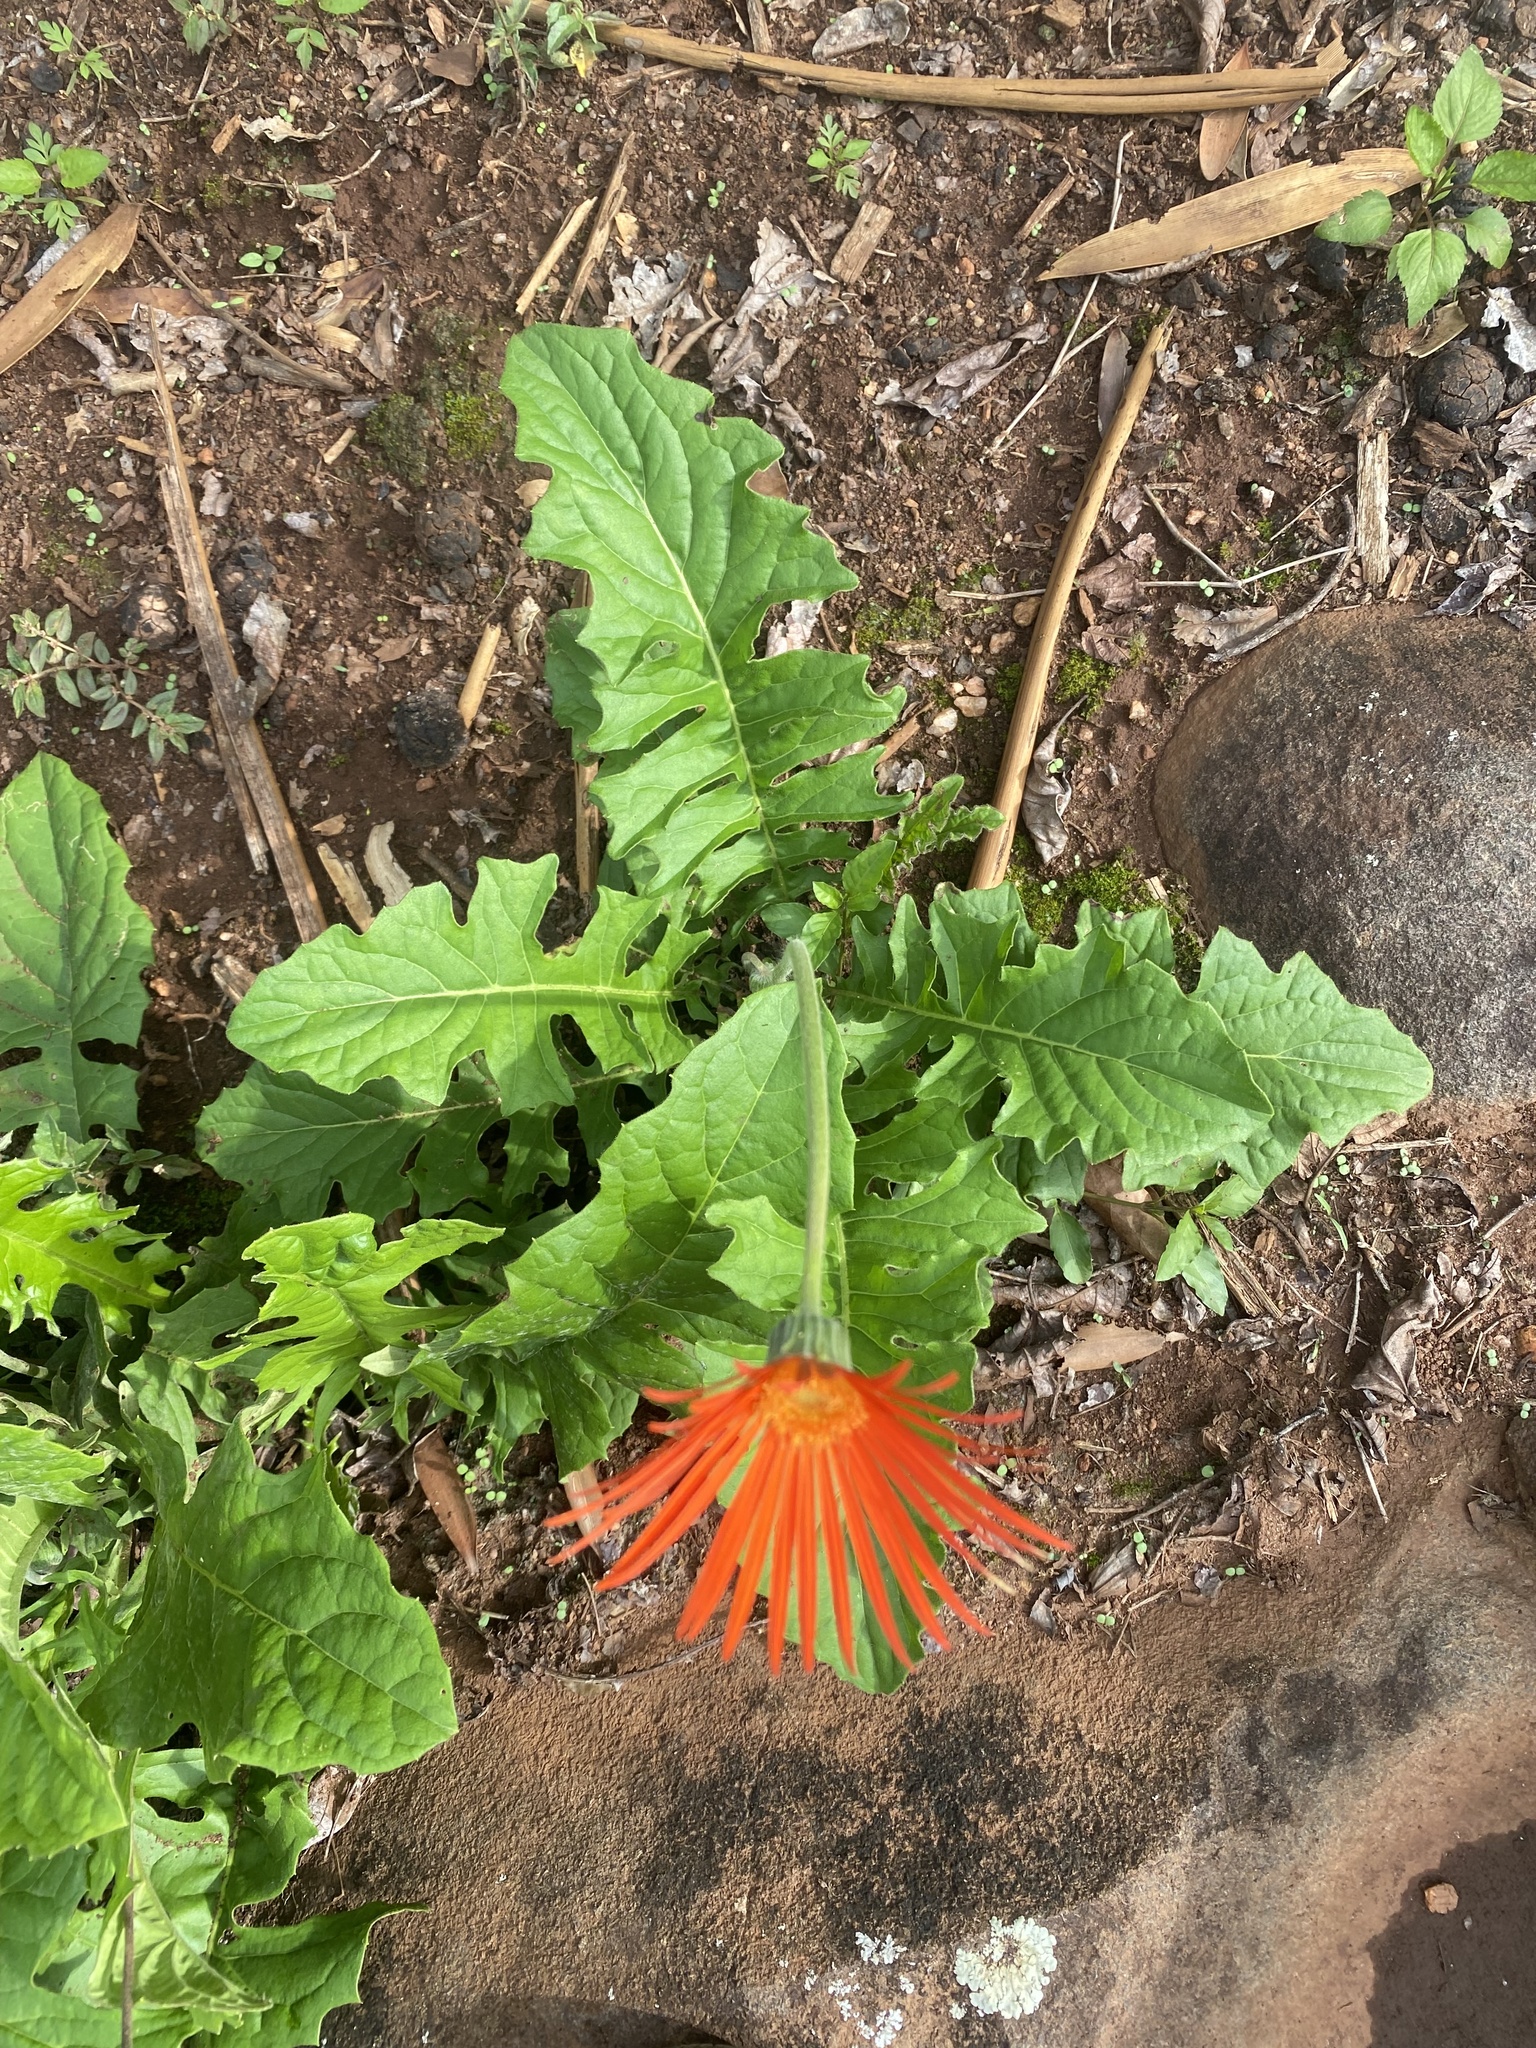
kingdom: Plantae
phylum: Tracheophyta
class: Magnoliopsida
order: Asterales
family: Asteraceae
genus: Gerbera
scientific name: Gerbera jamesonii
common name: African daisy
